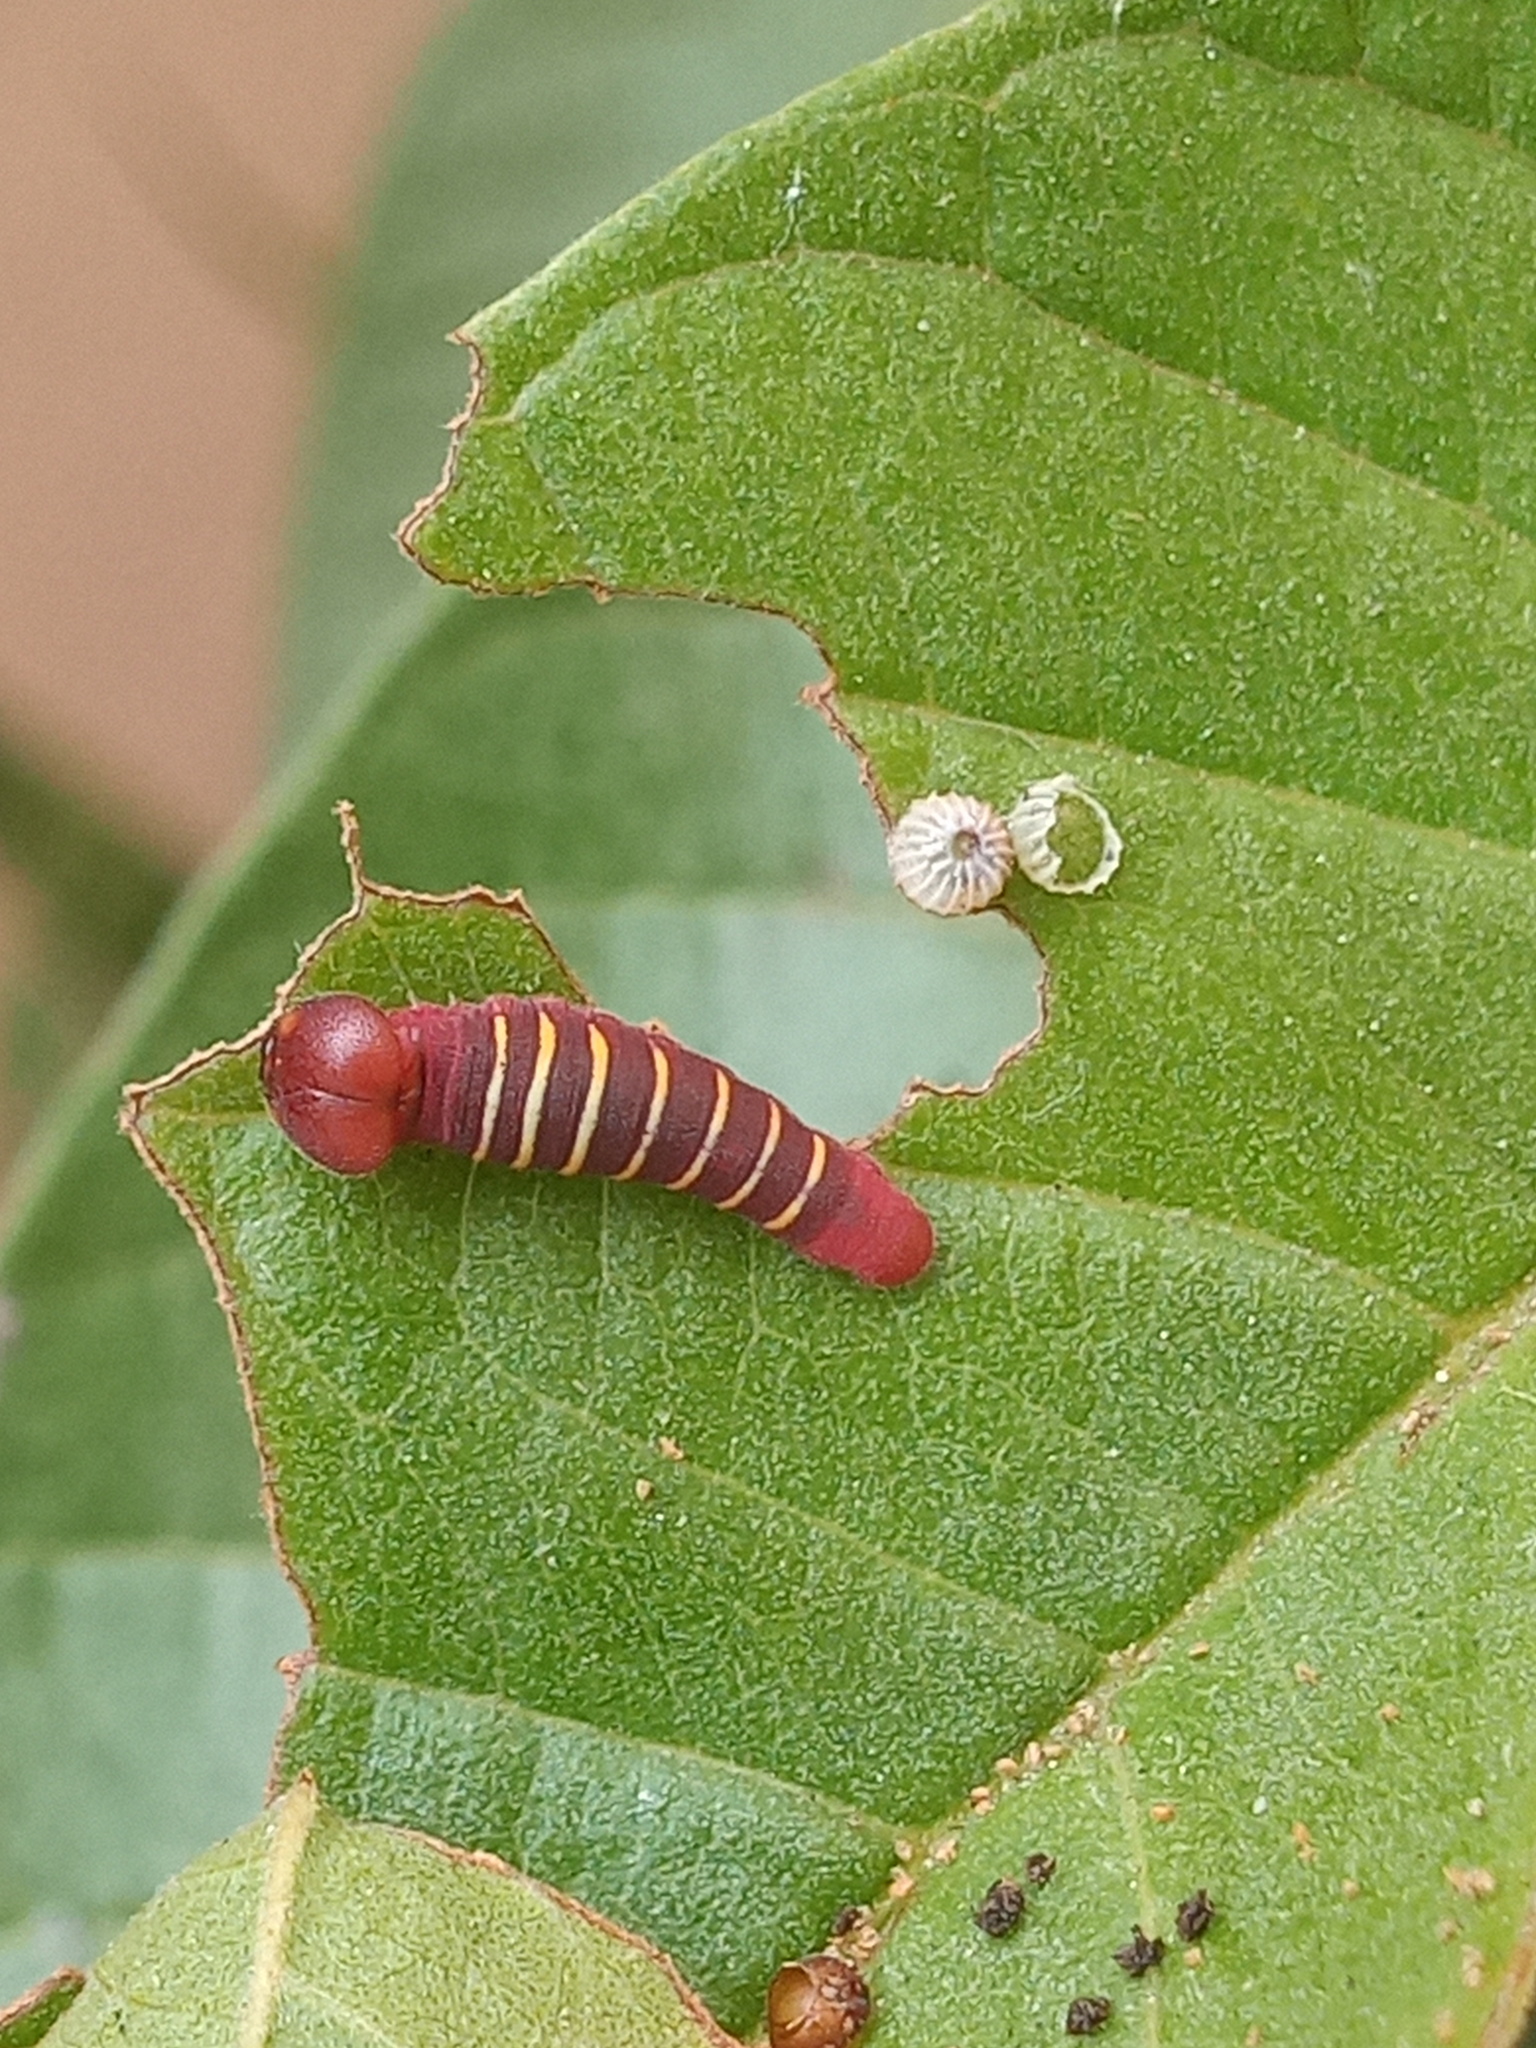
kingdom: Animalia
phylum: Arthropoda
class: Insecta
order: Lepidoptera
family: Hesperiidae
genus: Phocides
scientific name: Phocides lilea
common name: Guava skipper
